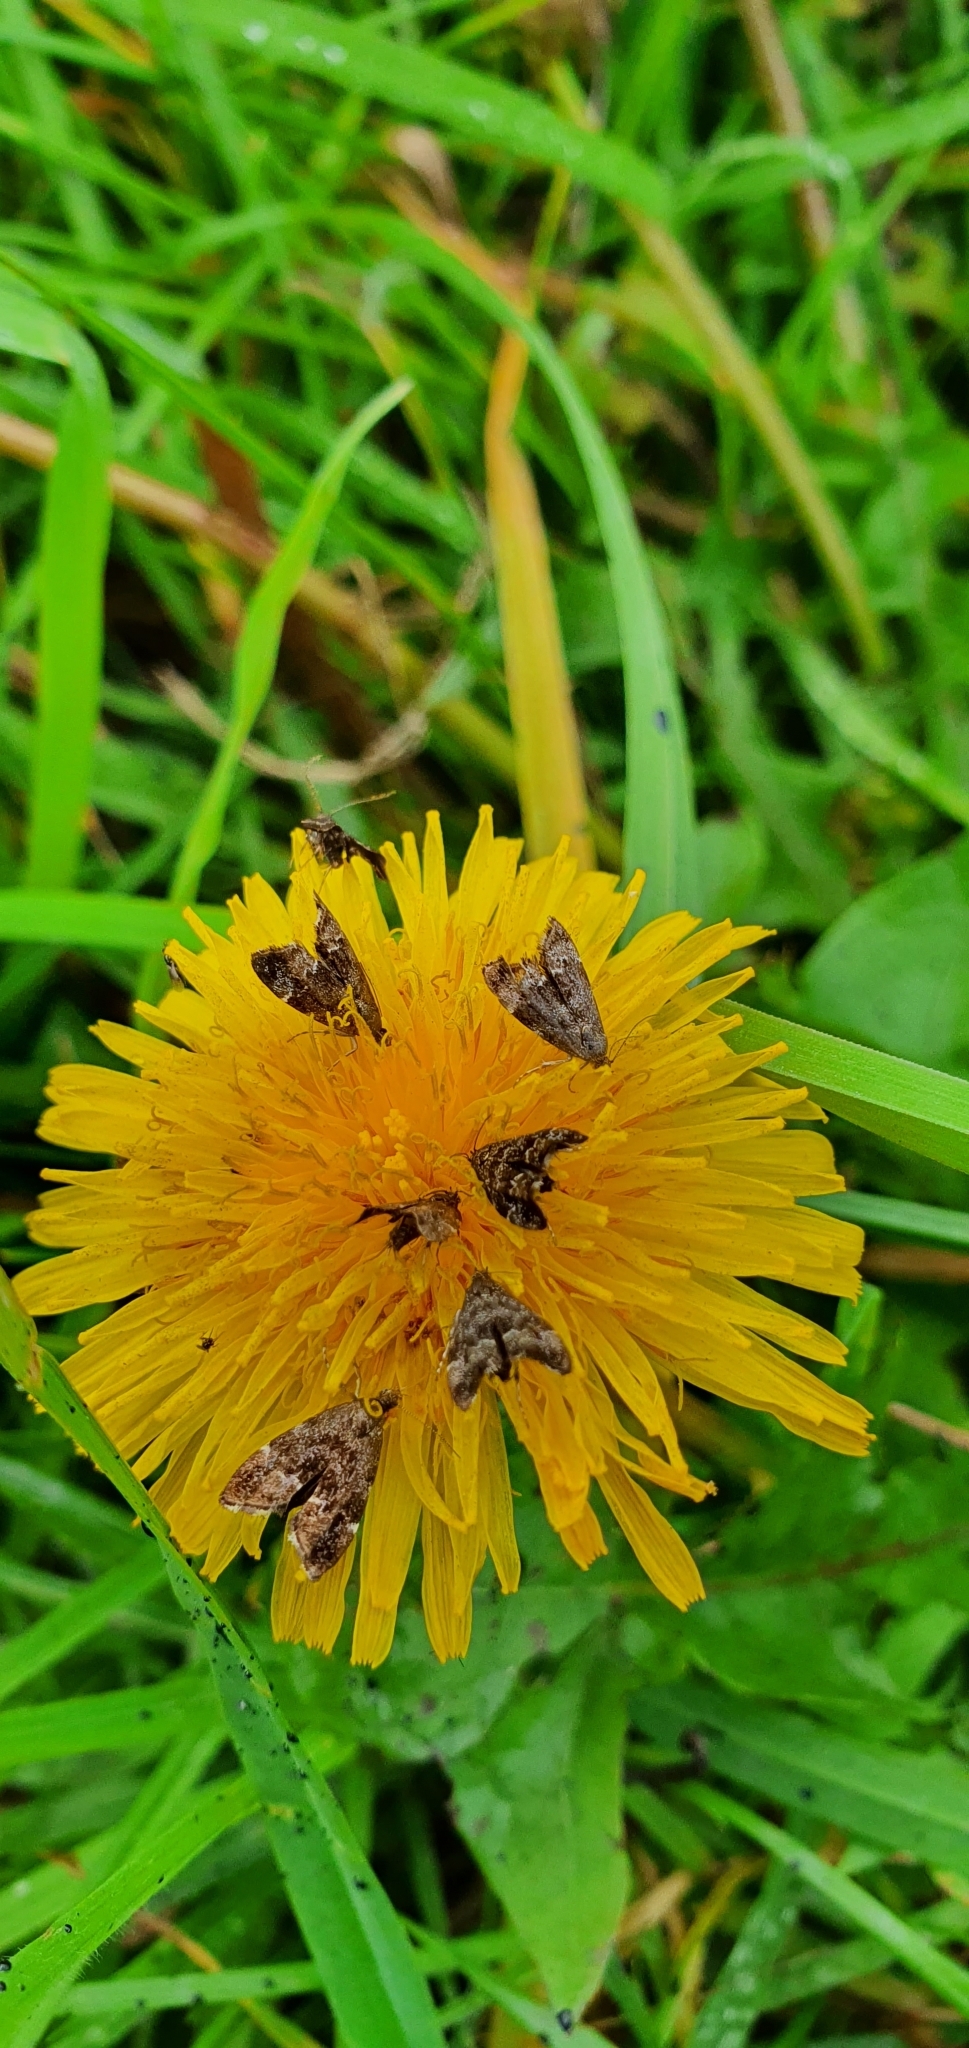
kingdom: Animalia
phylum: Arthropoda
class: Insecta
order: Lepidoptera
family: Choreutidae
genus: Anthophila
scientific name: Anthophila fabriciana
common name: Nettle-tap
